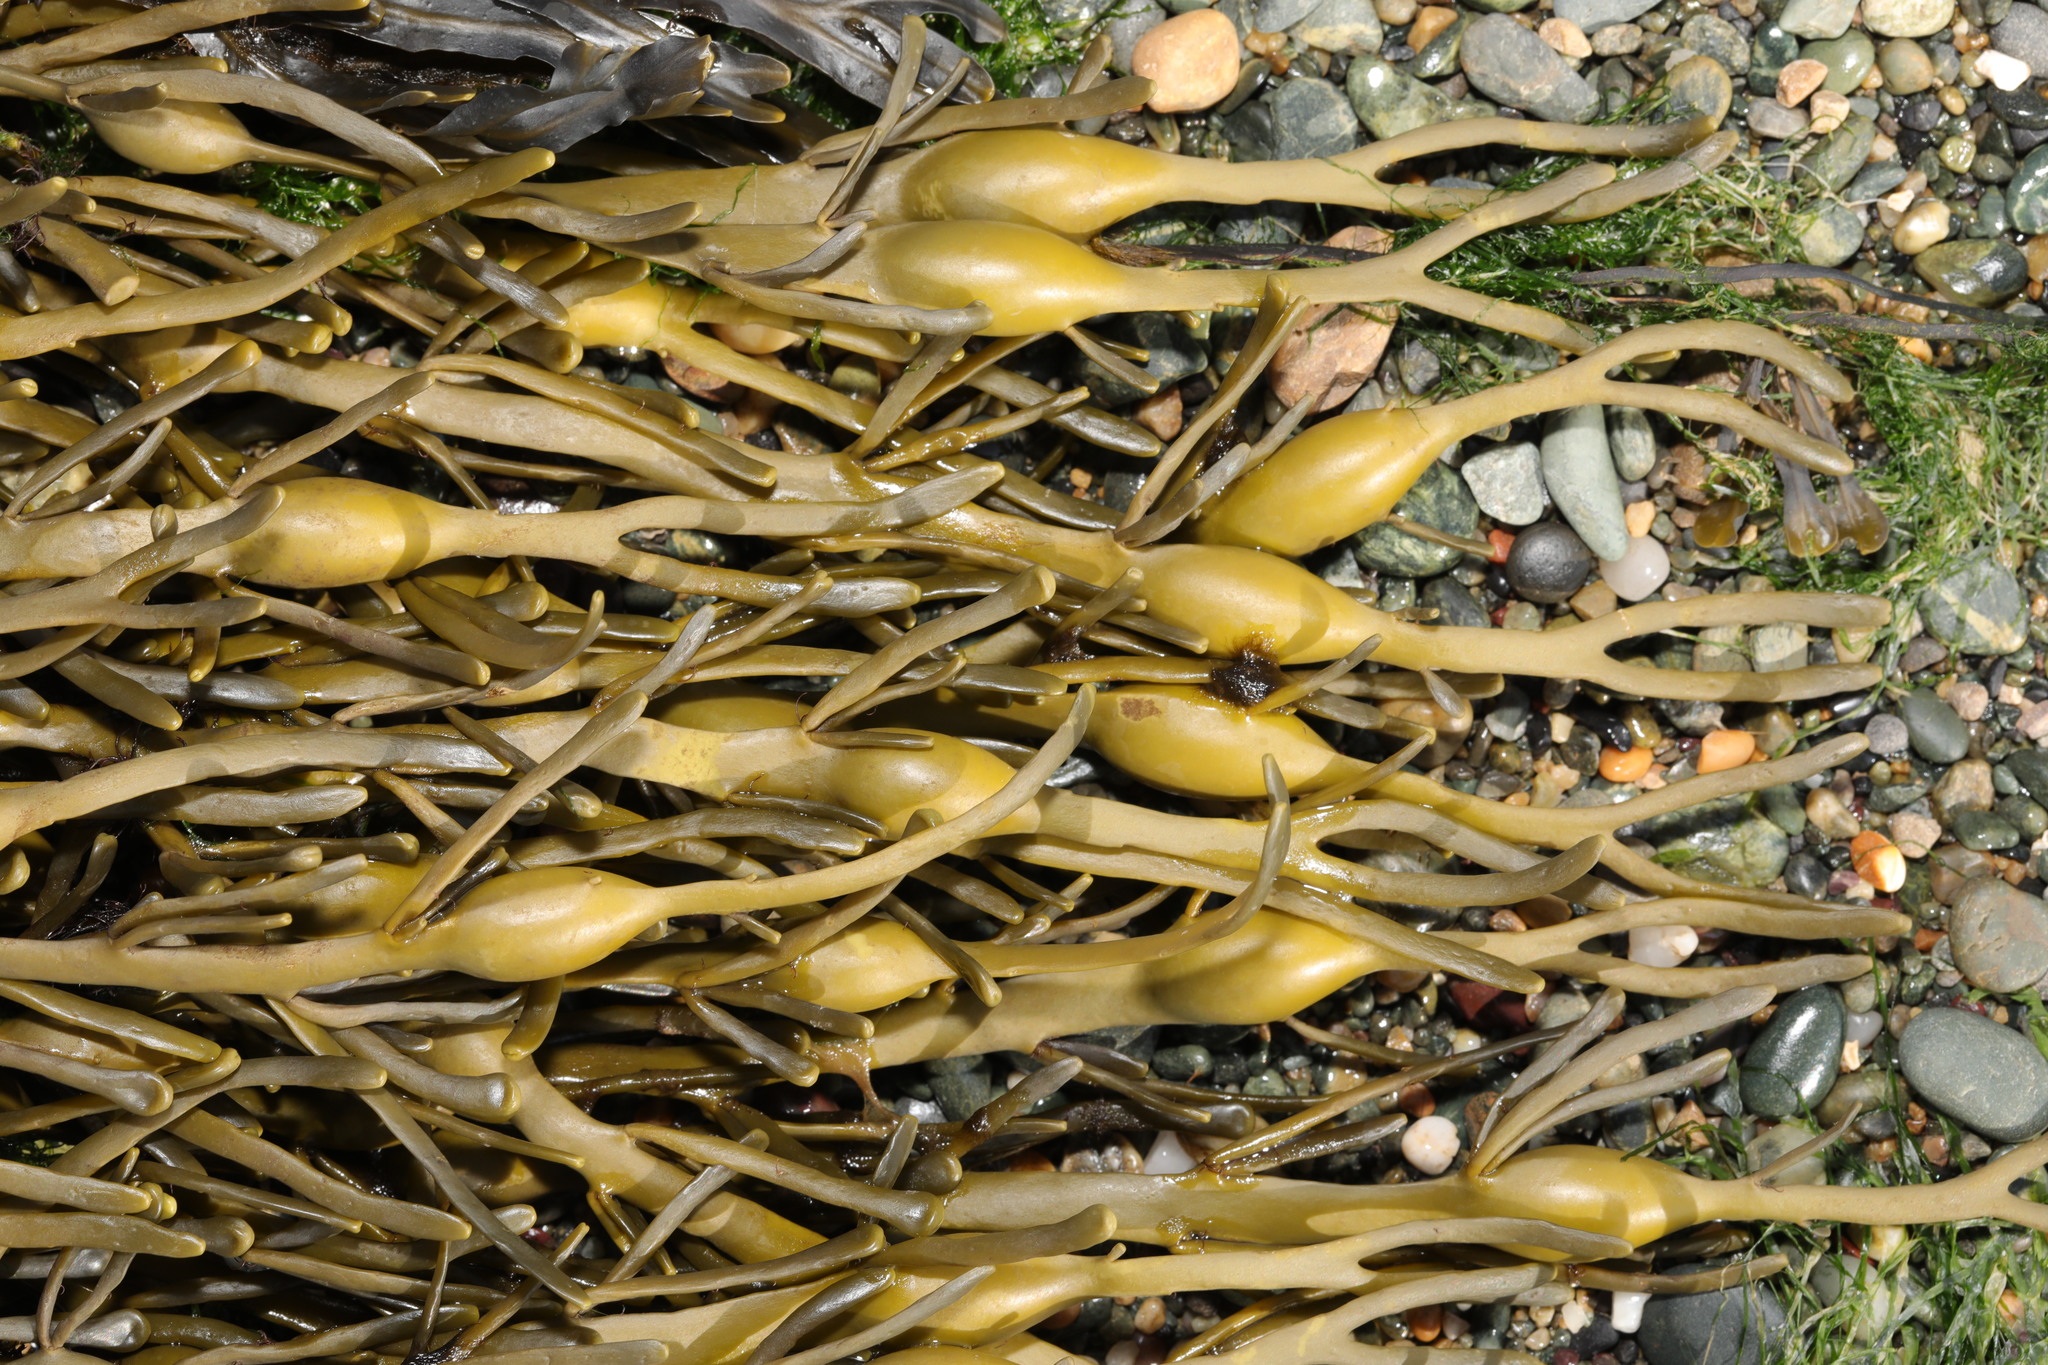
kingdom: Chromista
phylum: Ochrophyta
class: Phaeophyceae
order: Fucales
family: Fucaceae
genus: Ascophyllum
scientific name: Ascophyllum nodosum
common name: Knotted wrack
